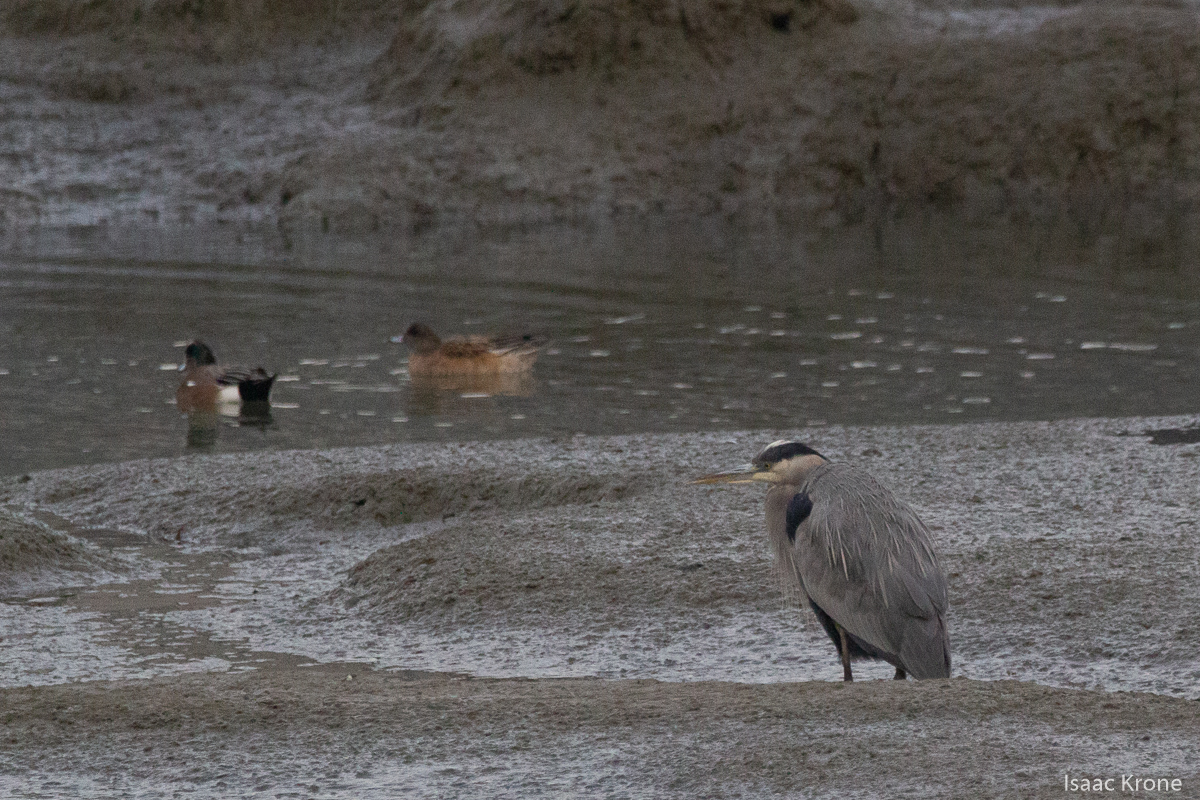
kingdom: Animalia
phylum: Chordata
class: Aves
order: Pelecaniformes
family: Ardeidae
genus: Ardea
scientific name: Ardea herodias
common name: Great blue heron
